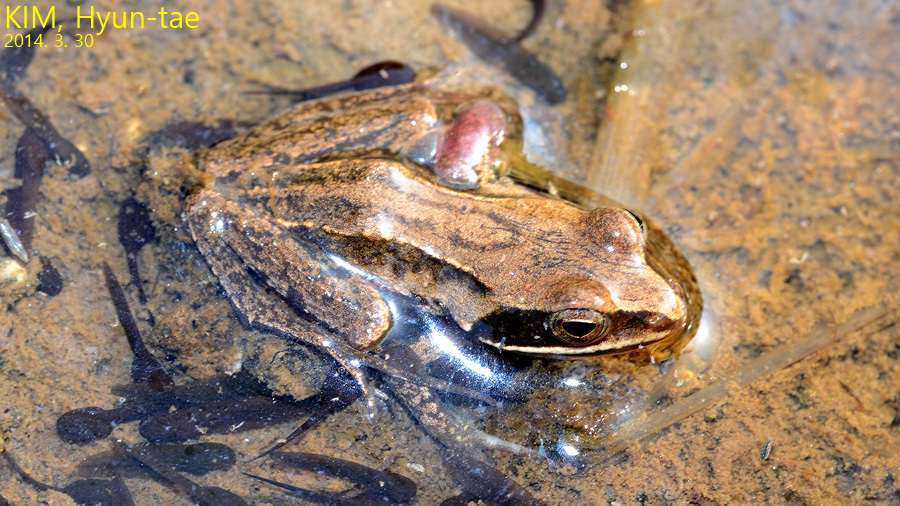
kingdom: Animalia
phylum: Chordata
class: Amphibia
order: Anura
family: Ranidae
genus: Rana
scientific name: Rana coreana
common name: Korean brown frog
